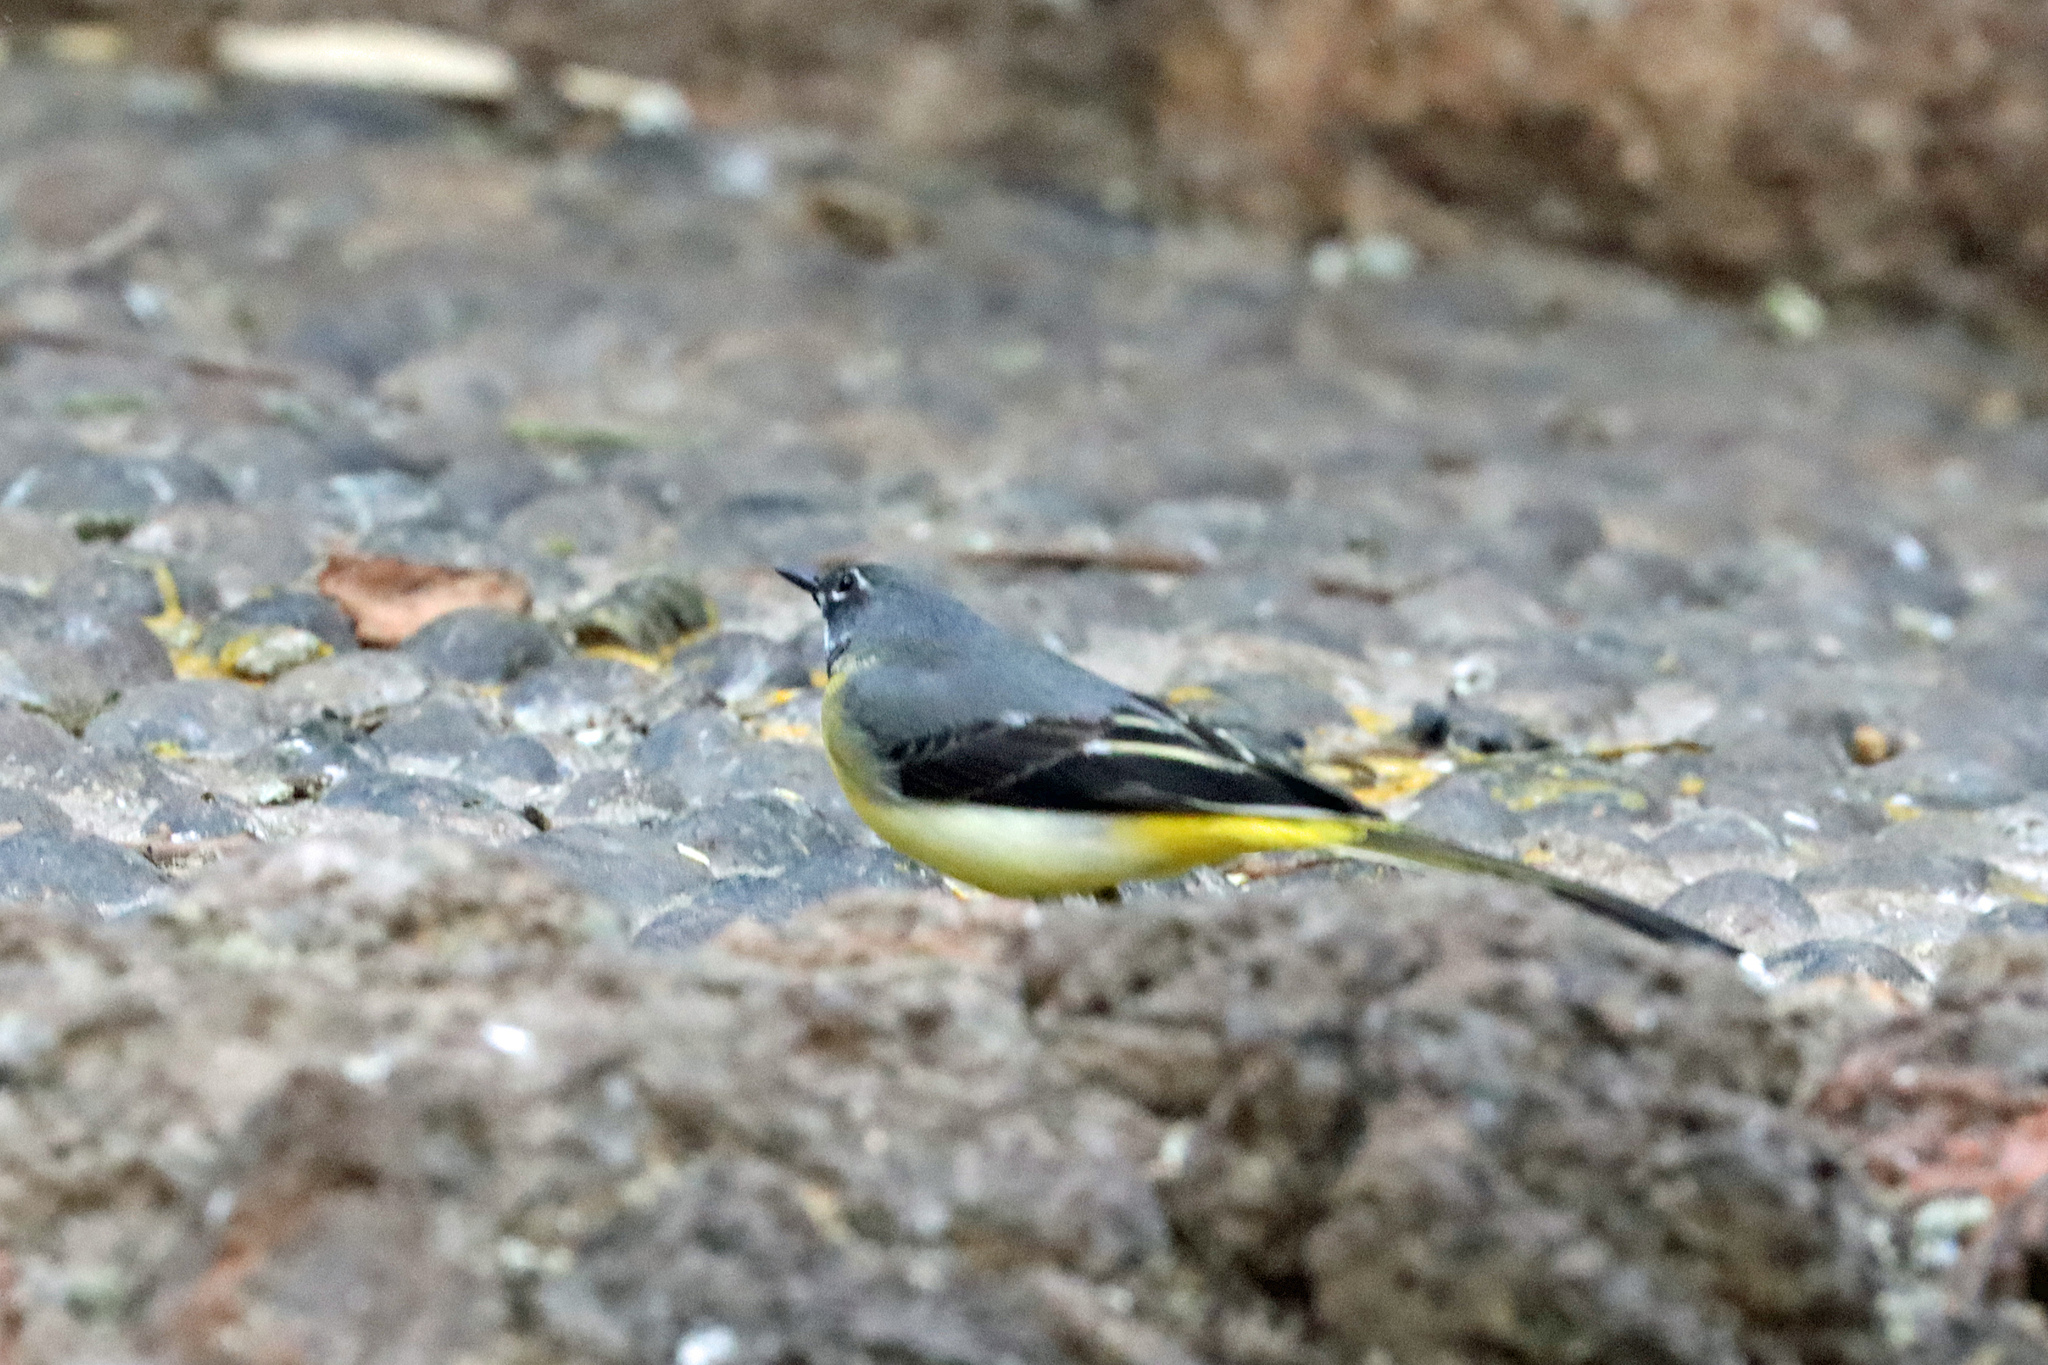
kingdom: Animalia
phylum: Chordata
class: Aves
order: Passeriformes
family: Motacillidae
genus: Motacilla
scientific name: Motacilla cinerea
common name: Grey wagtail
